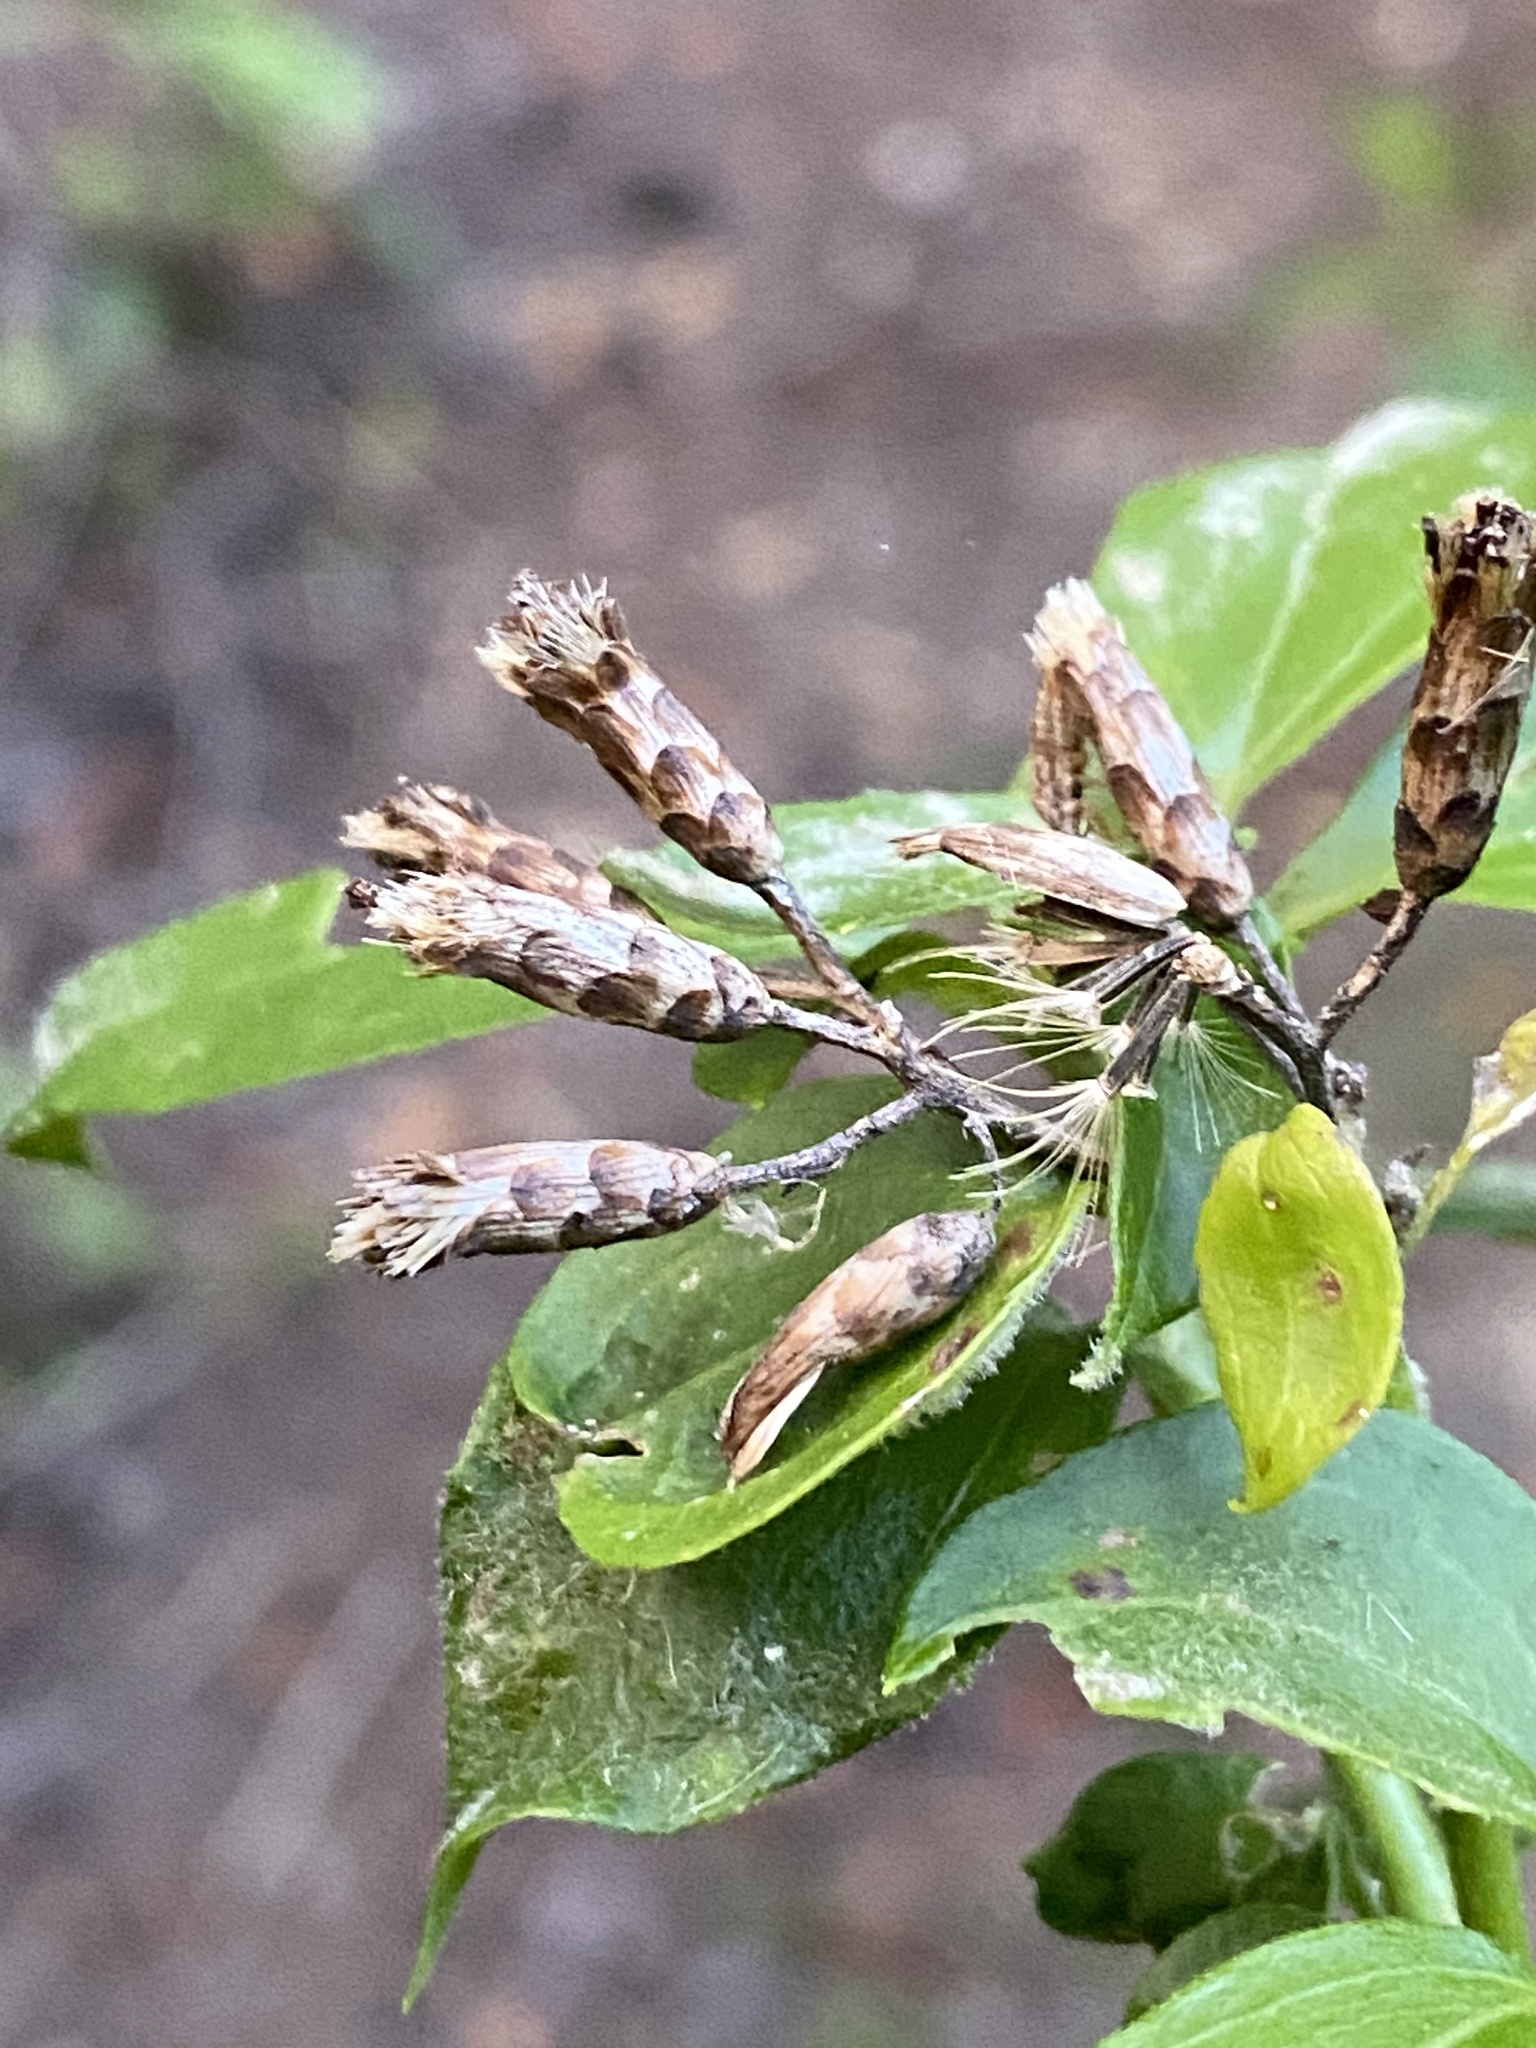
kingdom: Plantae
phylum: Tracheophyta
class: Magnoliopsida
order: Asterales
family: Asteraceae
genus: Chromolaena
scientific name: Chromolaena odorata
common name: Siamweed
